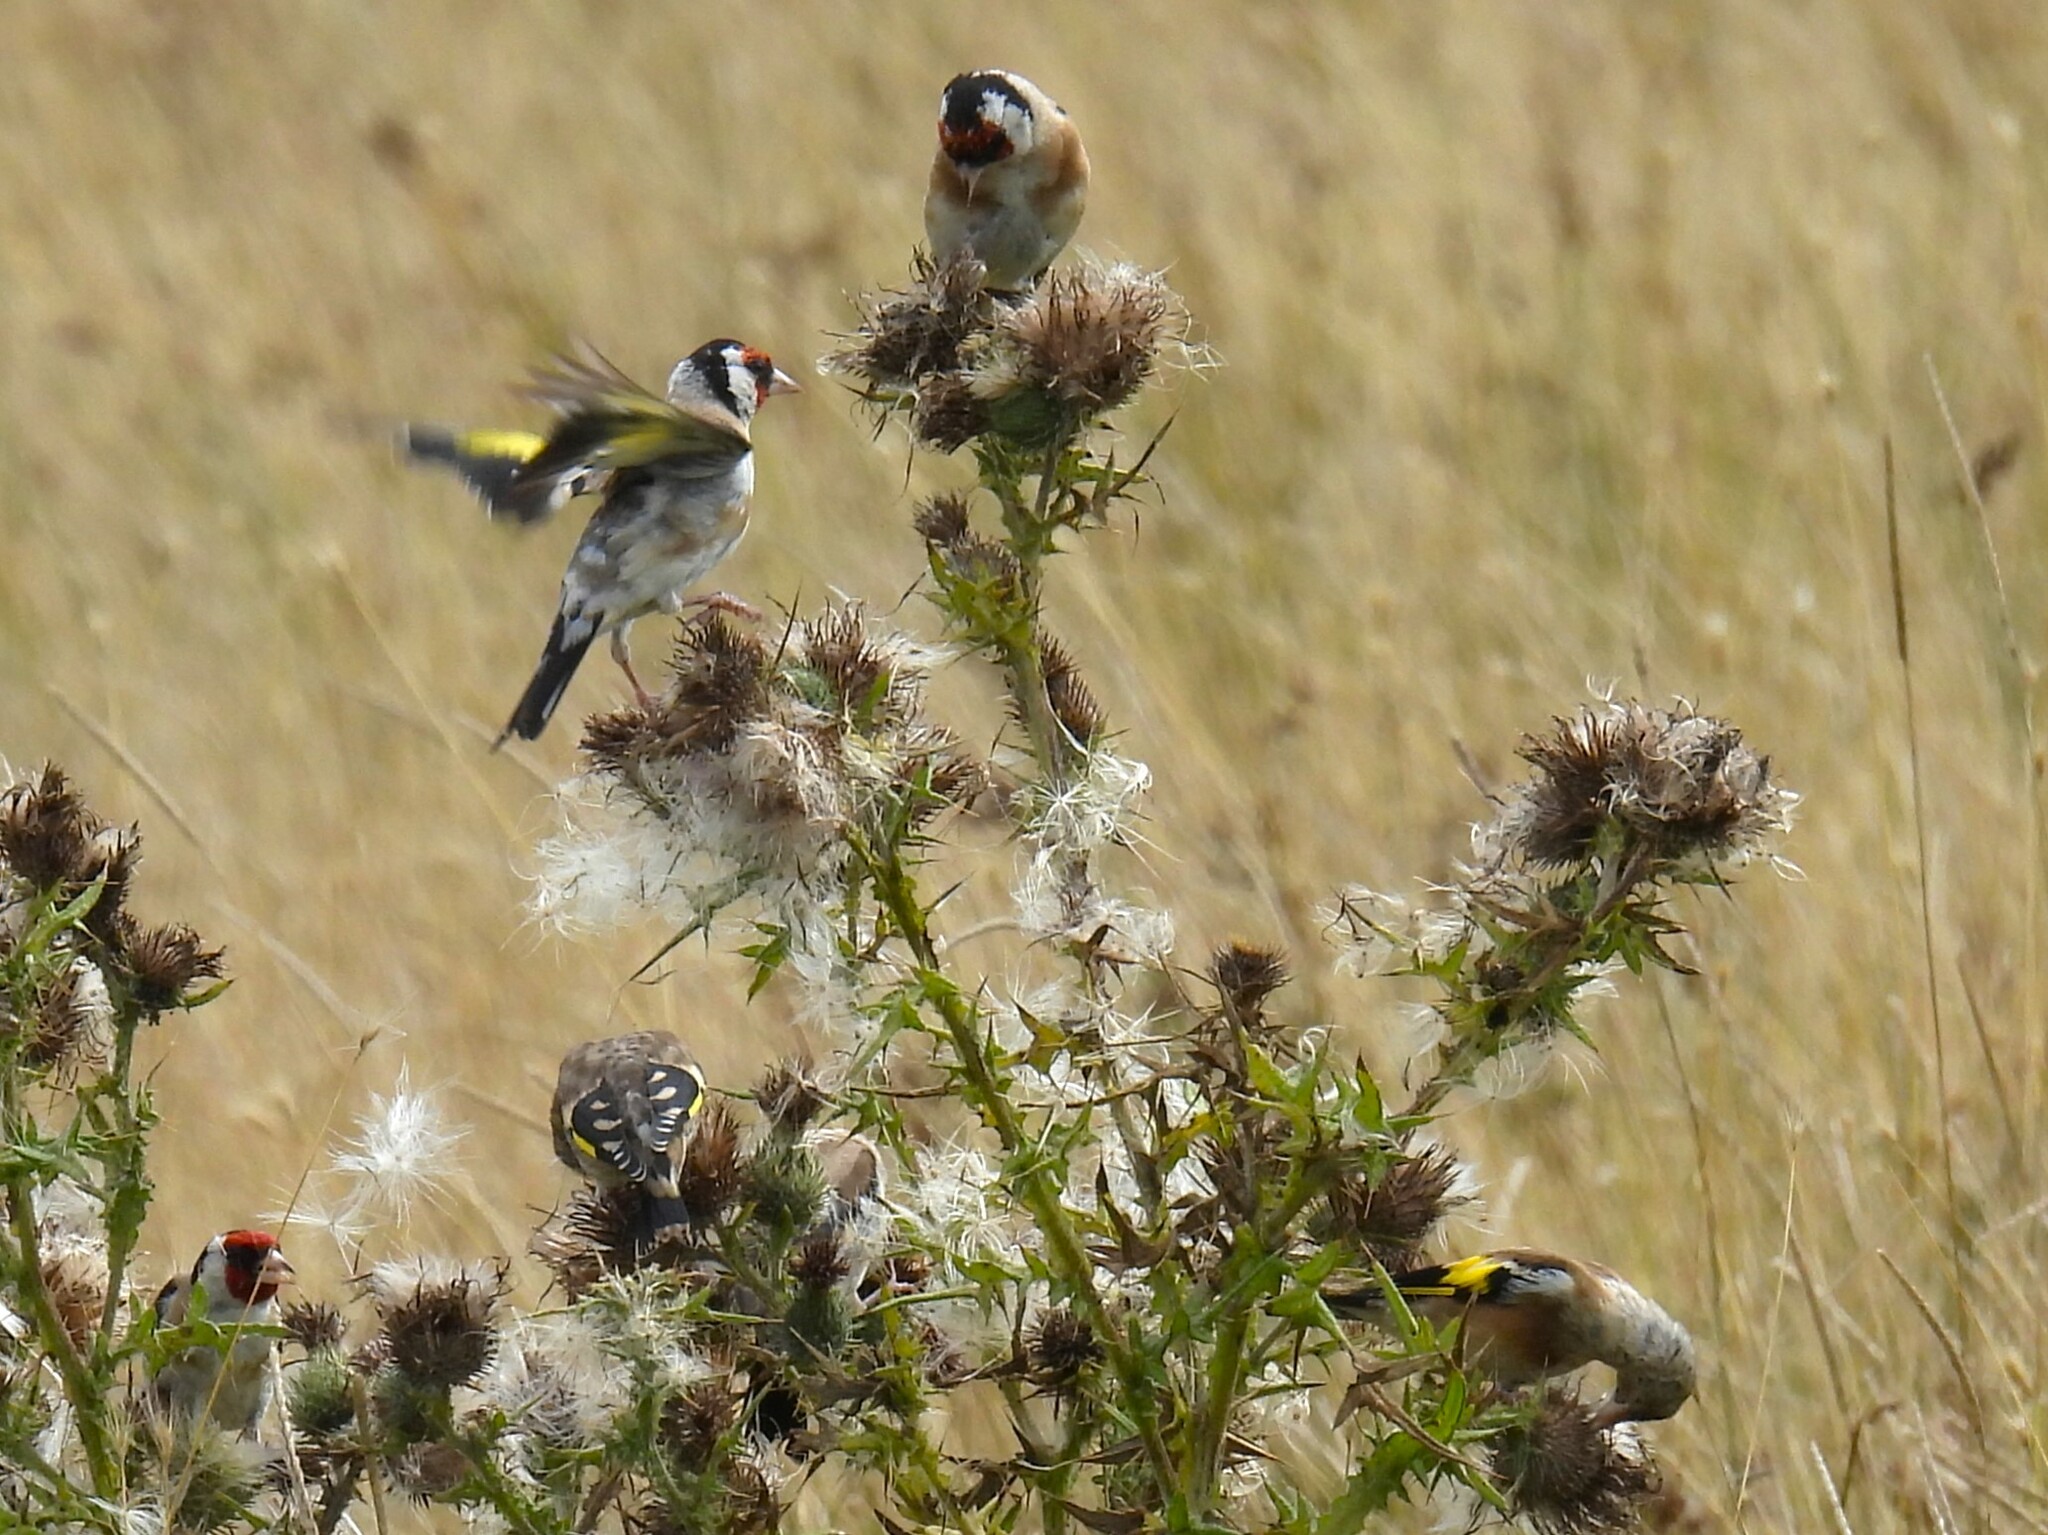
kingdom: Animalia
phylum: Chordata
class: Aves
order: Passeriformes
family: Fringillidae
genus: Carduelis
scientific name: Carduelis carduelis
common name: European goldfinch
